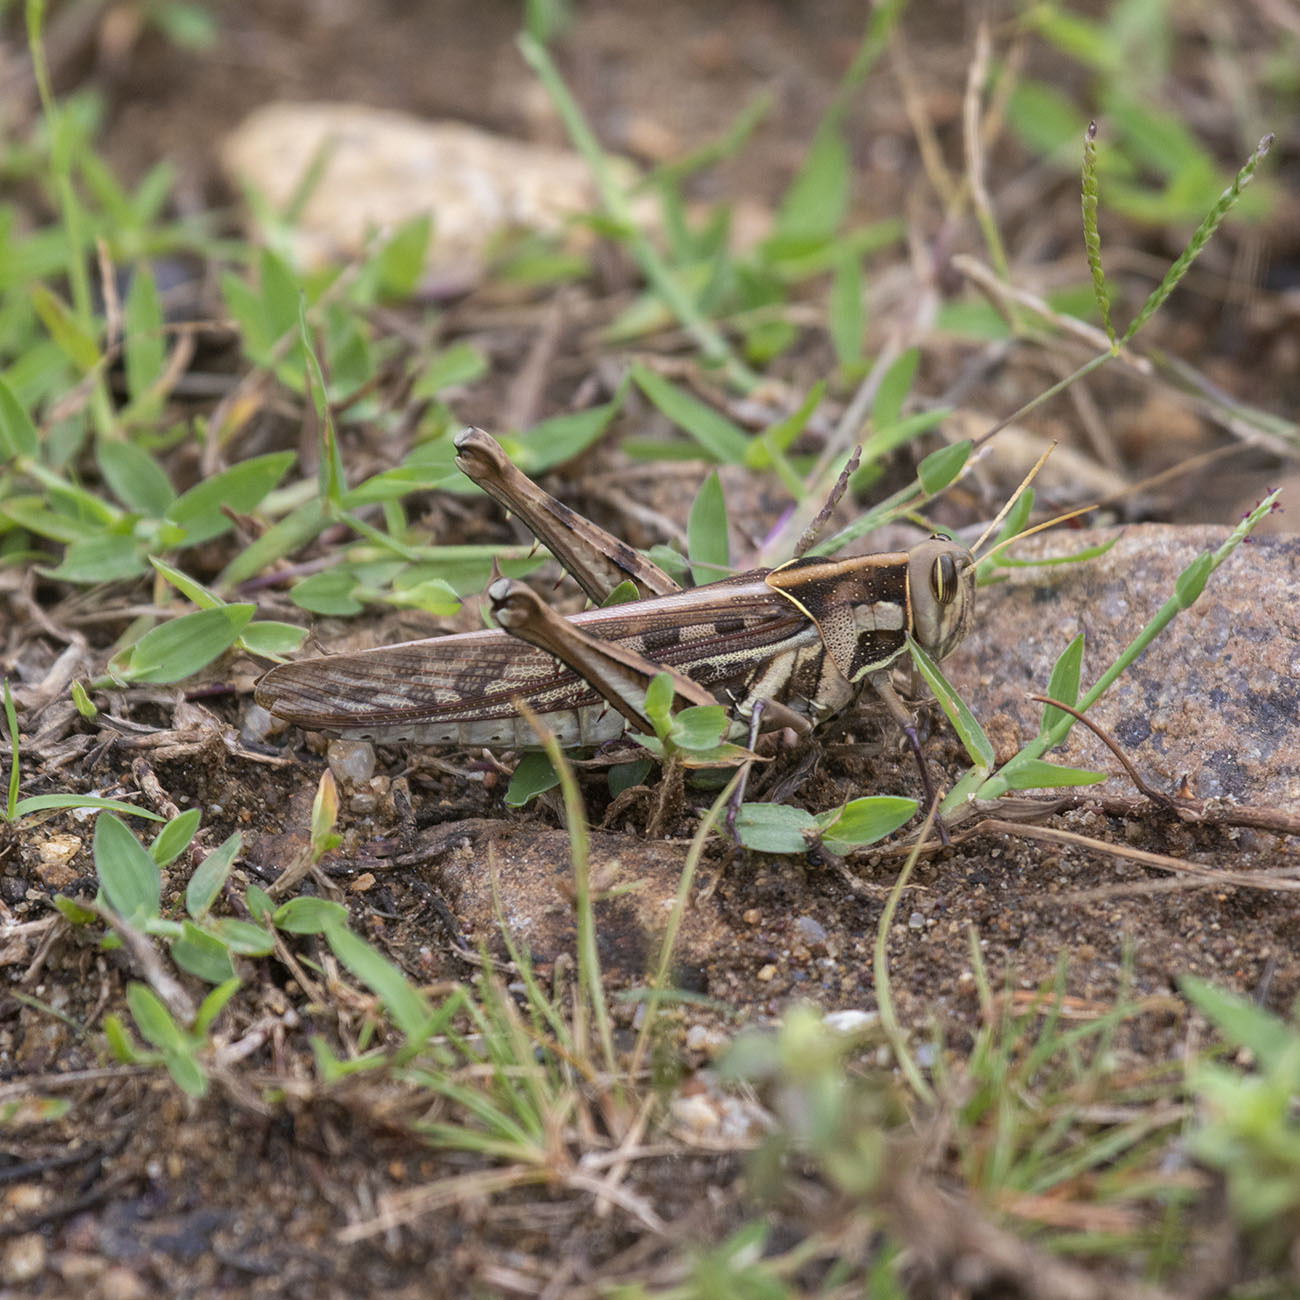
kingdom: Animalia
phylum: Arthropoda
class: Insecta
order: Orthoptera
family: Acrididae
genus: Cyrtacanthacris
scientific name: Cyrtacanthacris tatarica
